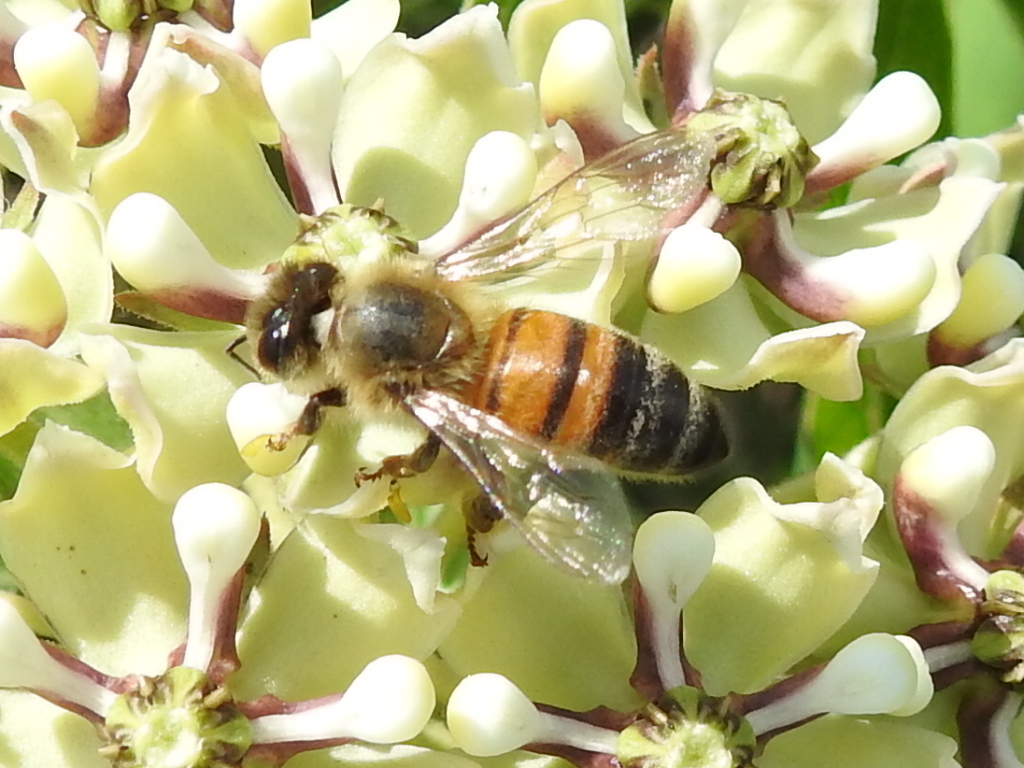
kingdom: Animalia
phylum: Arthropoda
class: Insecta
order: Hymenoptera
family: Apidae
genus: Apis
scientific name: Apis mellifera
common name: Honey bee
